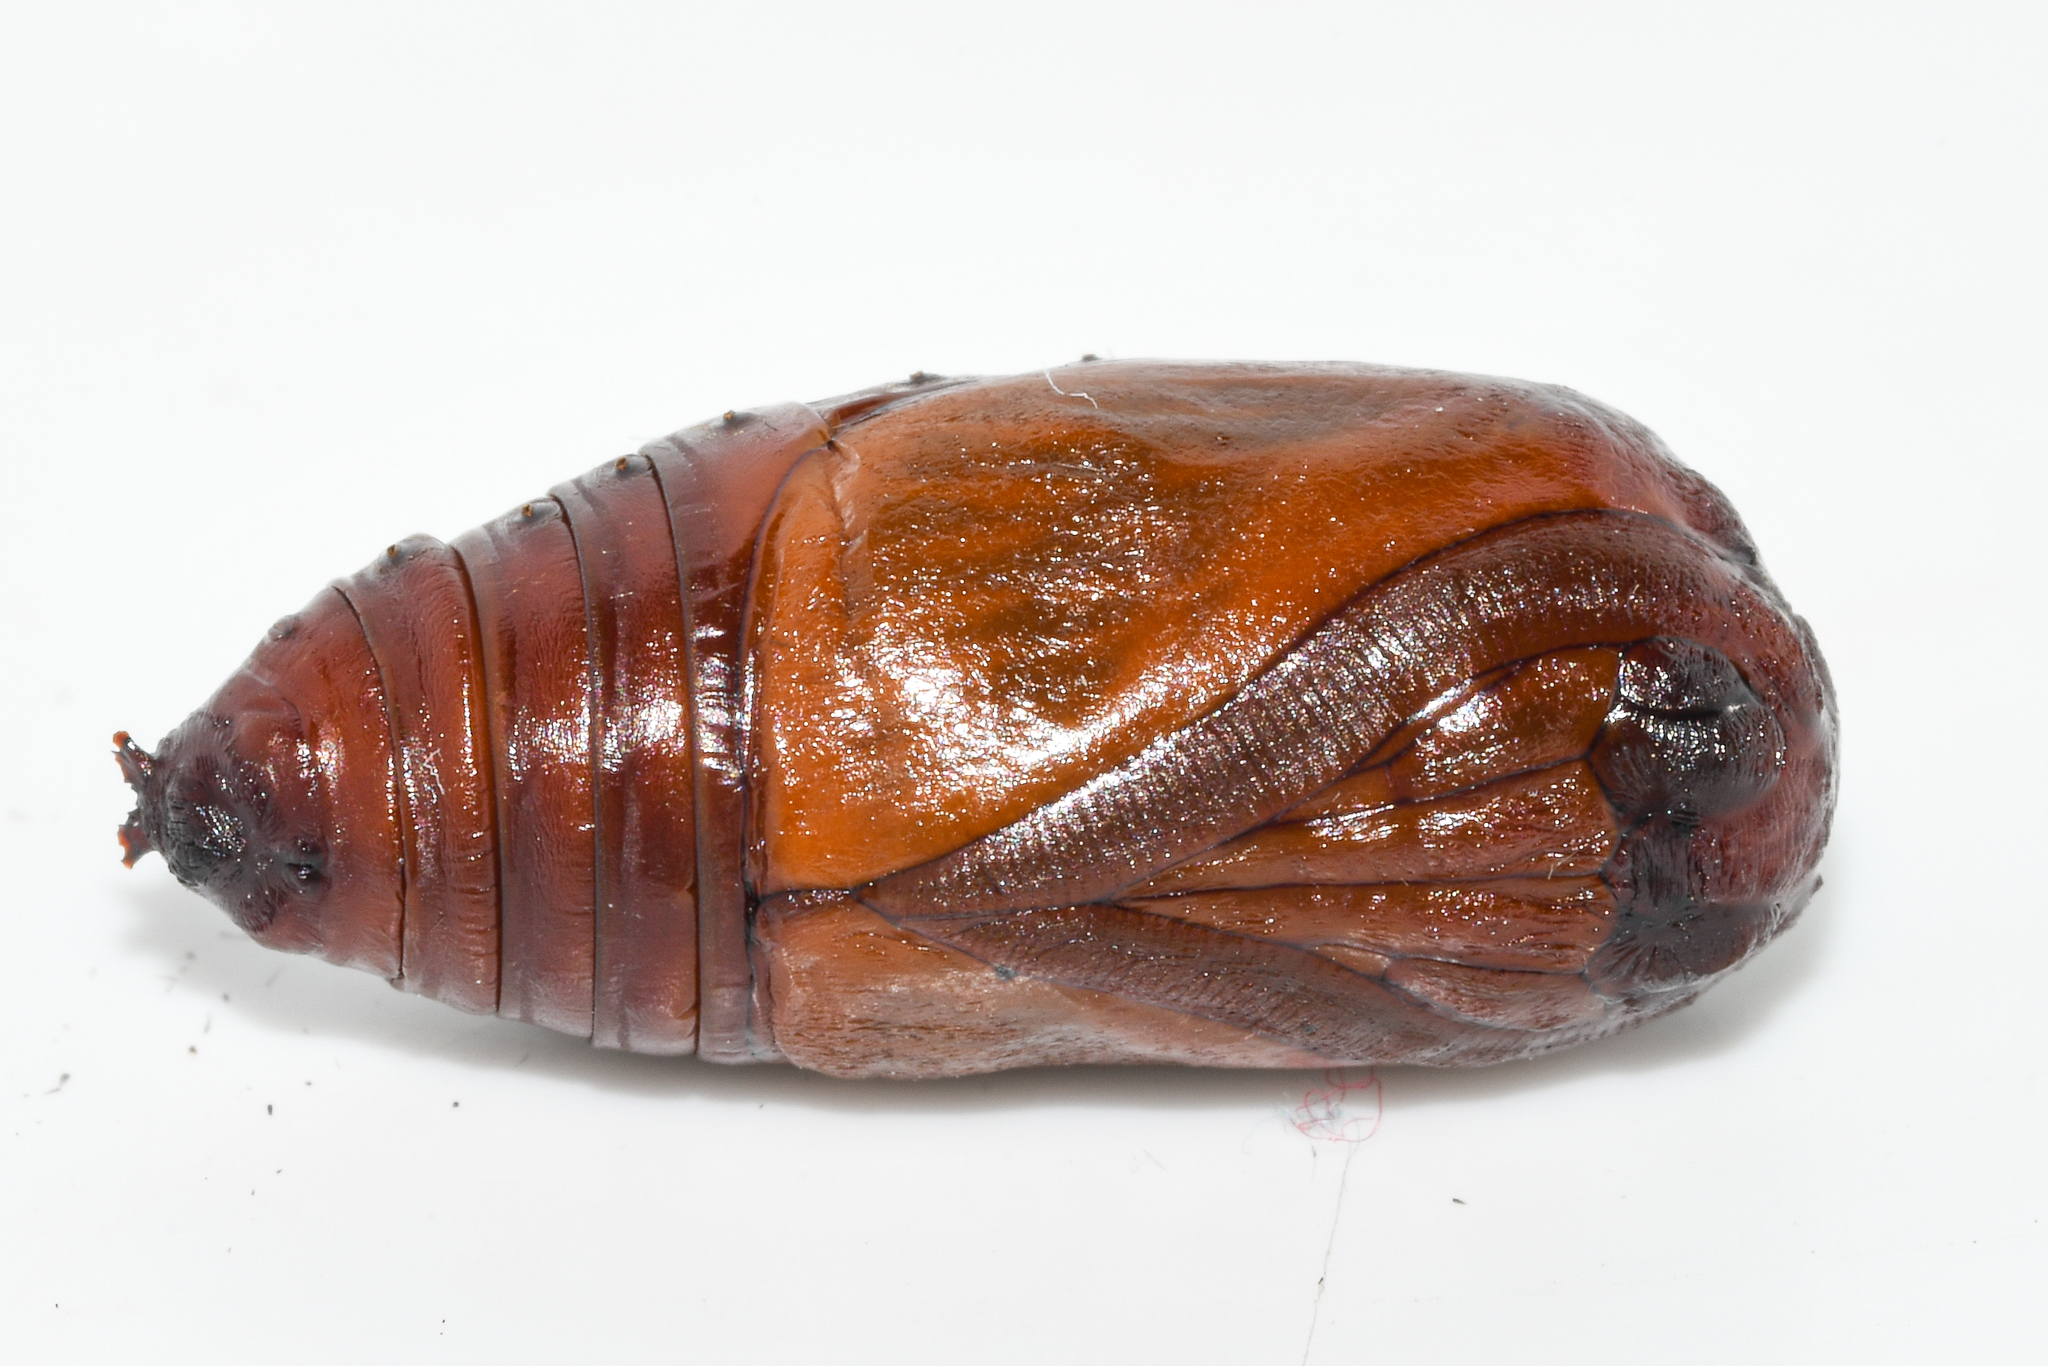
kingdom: Animalia
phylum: Arthropoda
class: Insecta
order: Lepidoptera
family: Eupterotidae
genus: Rhabdosia
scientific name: Rhabdosia vaninia
